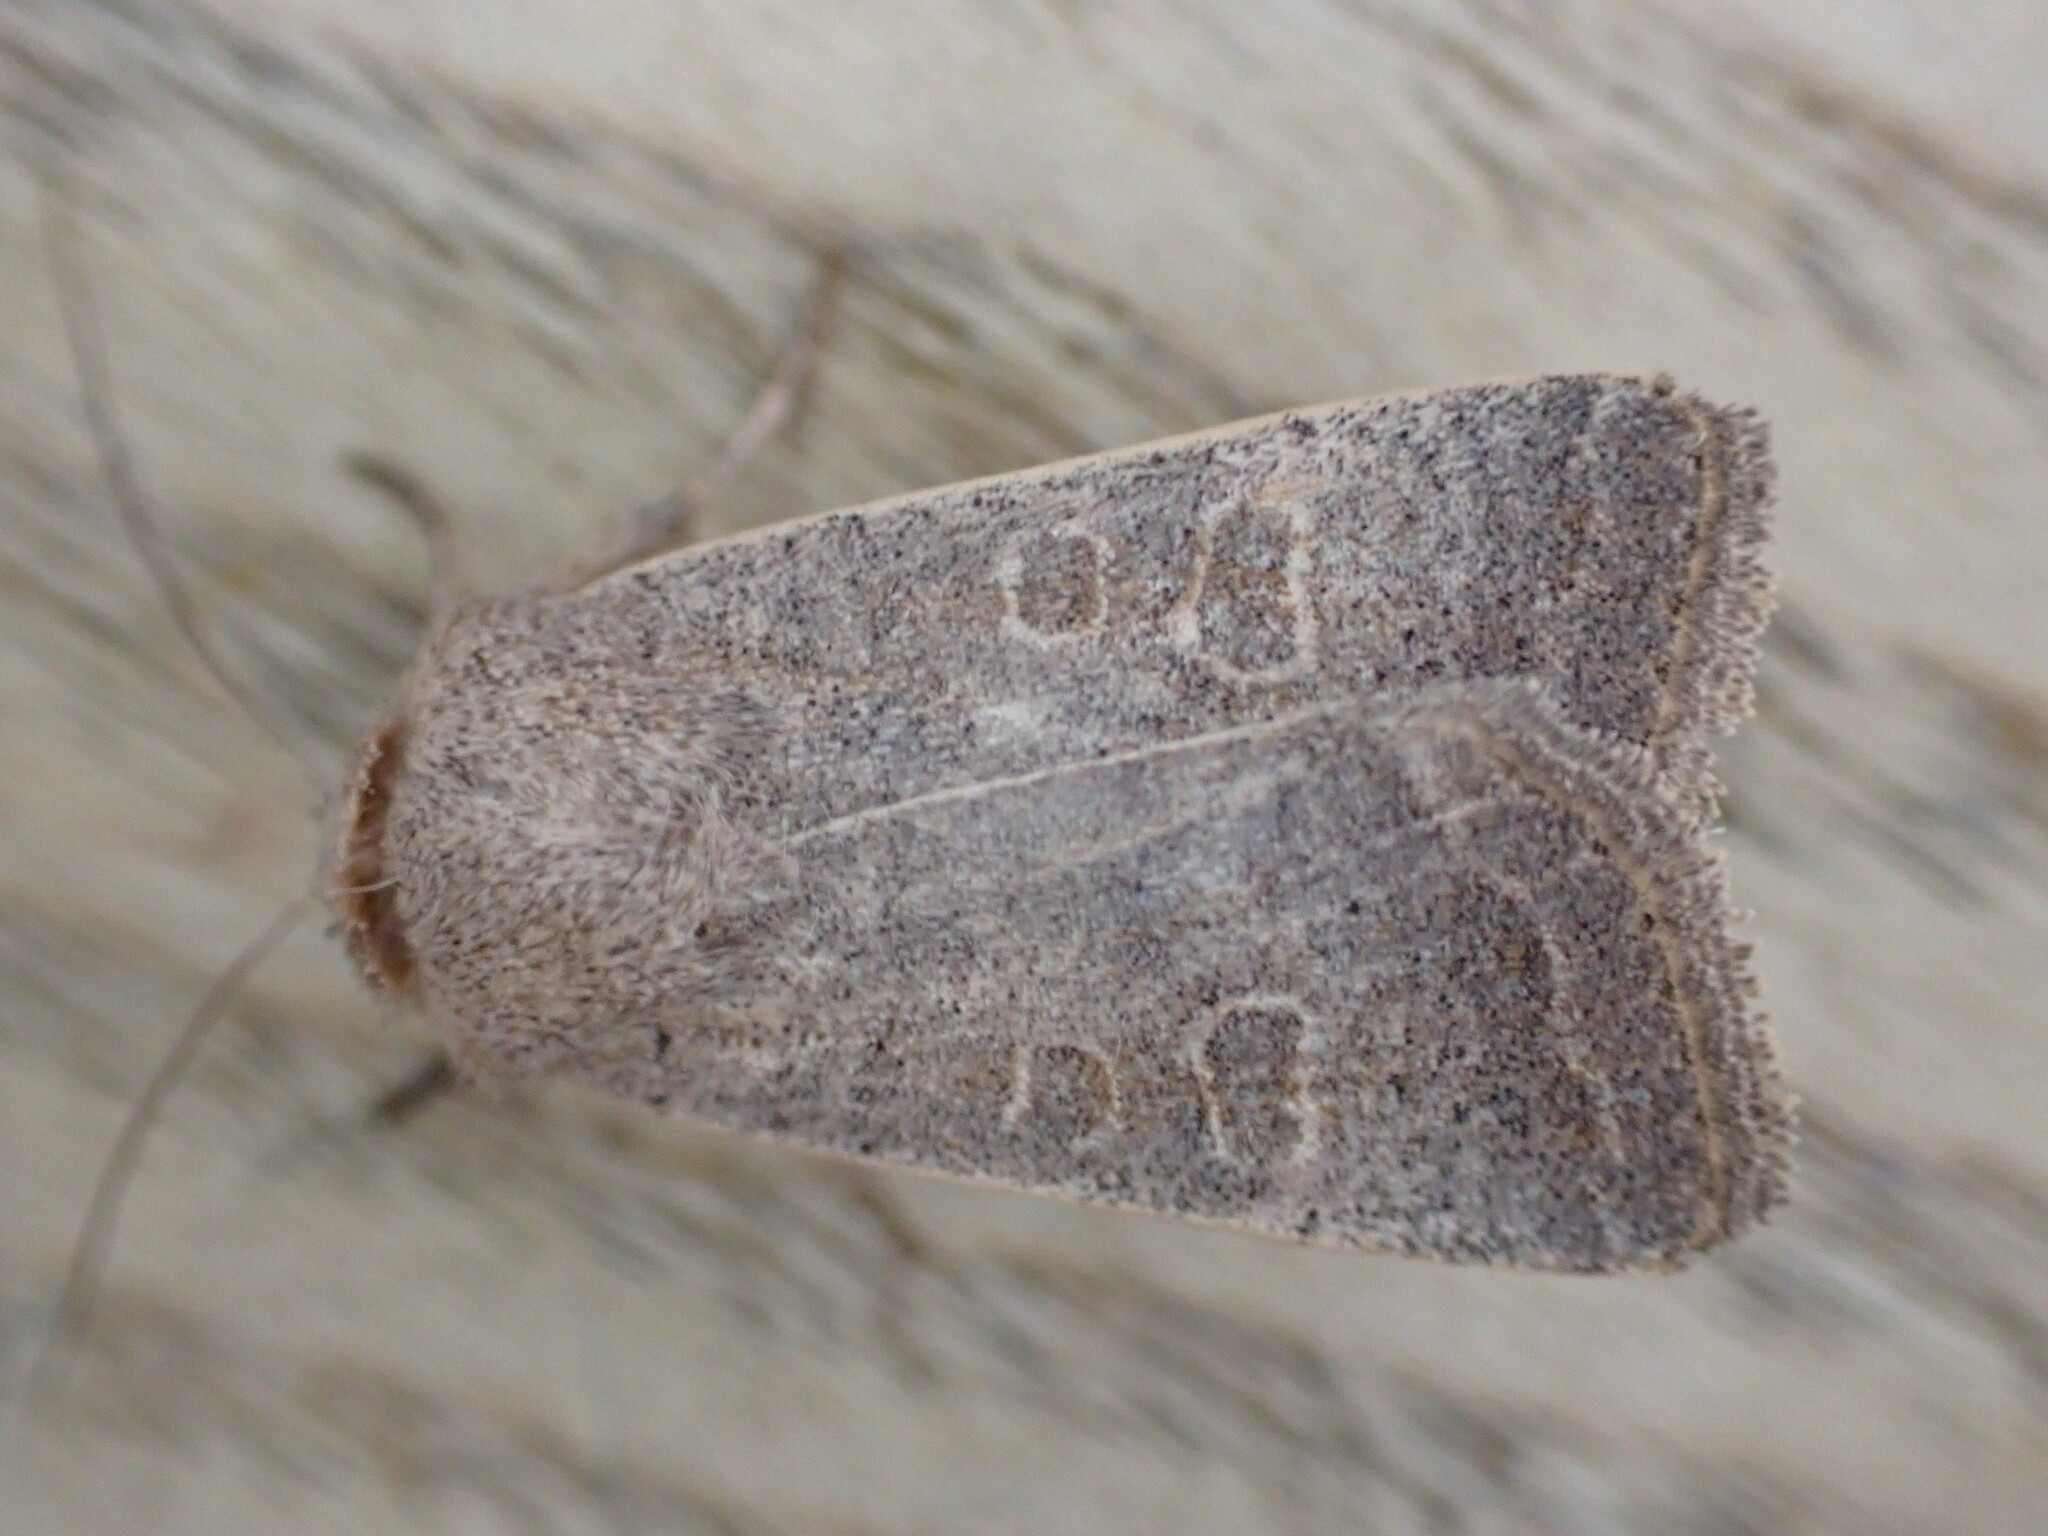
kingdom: Animalia
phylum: Arthropoda
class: Insecta
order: Lepidoptera
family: Noctuidae
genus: Hoplodrina
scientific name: Hoplodrina ambigua
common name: Vine's rustic
